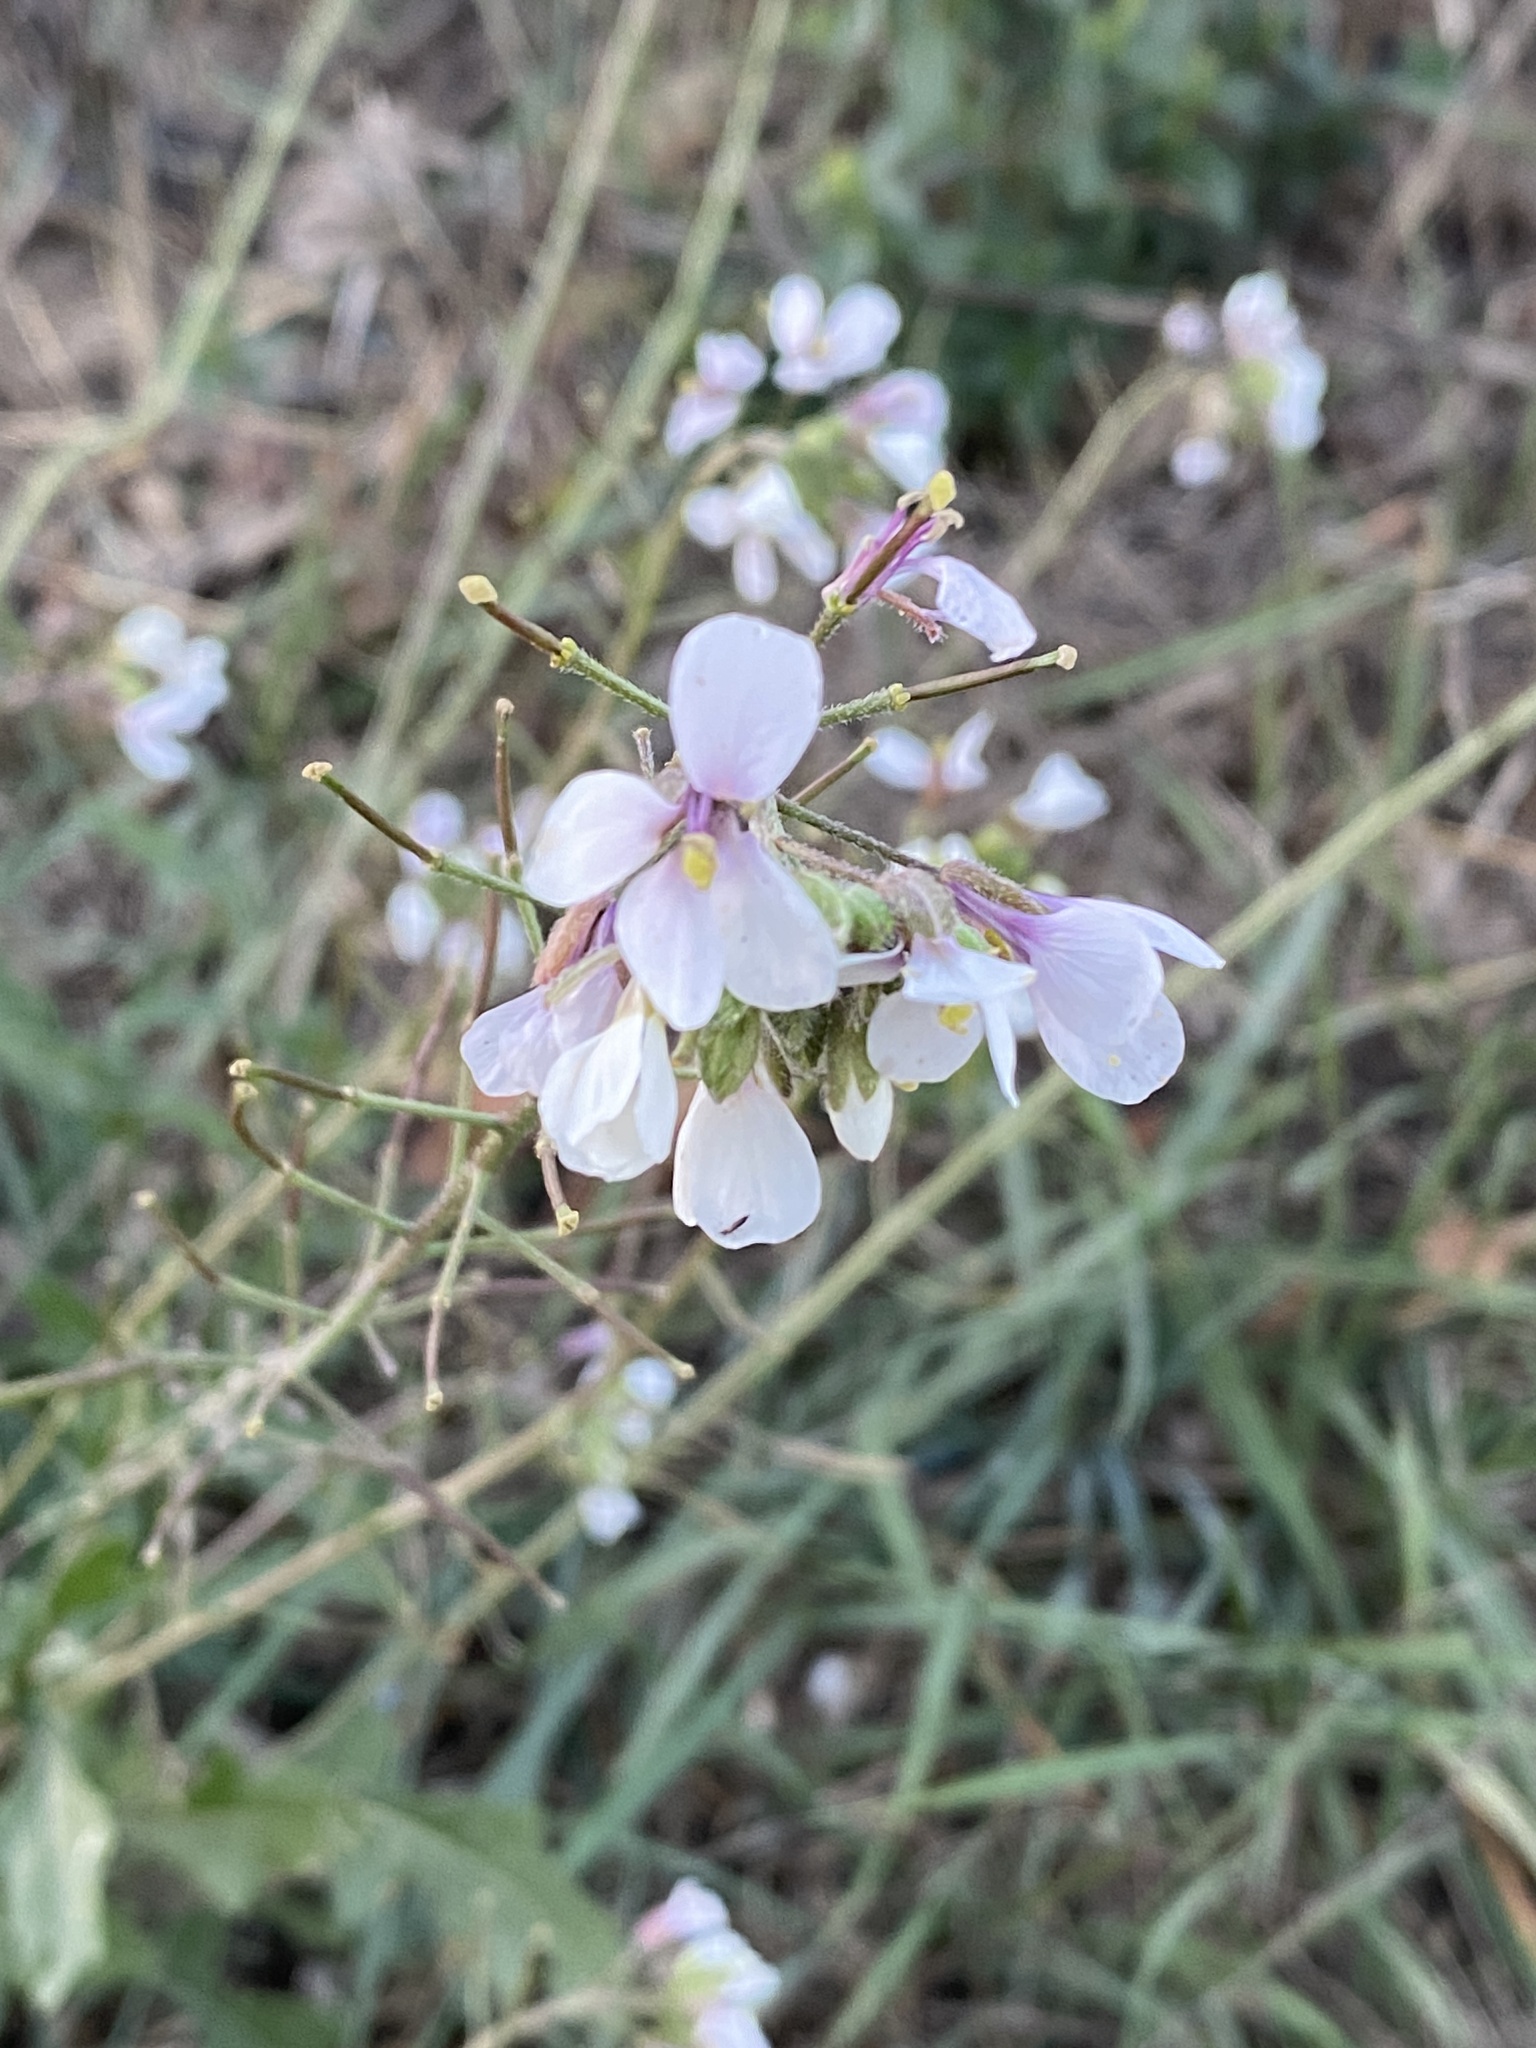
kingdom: Plantae
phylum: Tracheophyta
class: Magnoliopsida
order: Brassicales
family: Brassicaceae
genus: Diplotaxis
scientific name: Diplotaxis erucoides
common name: White rocket
